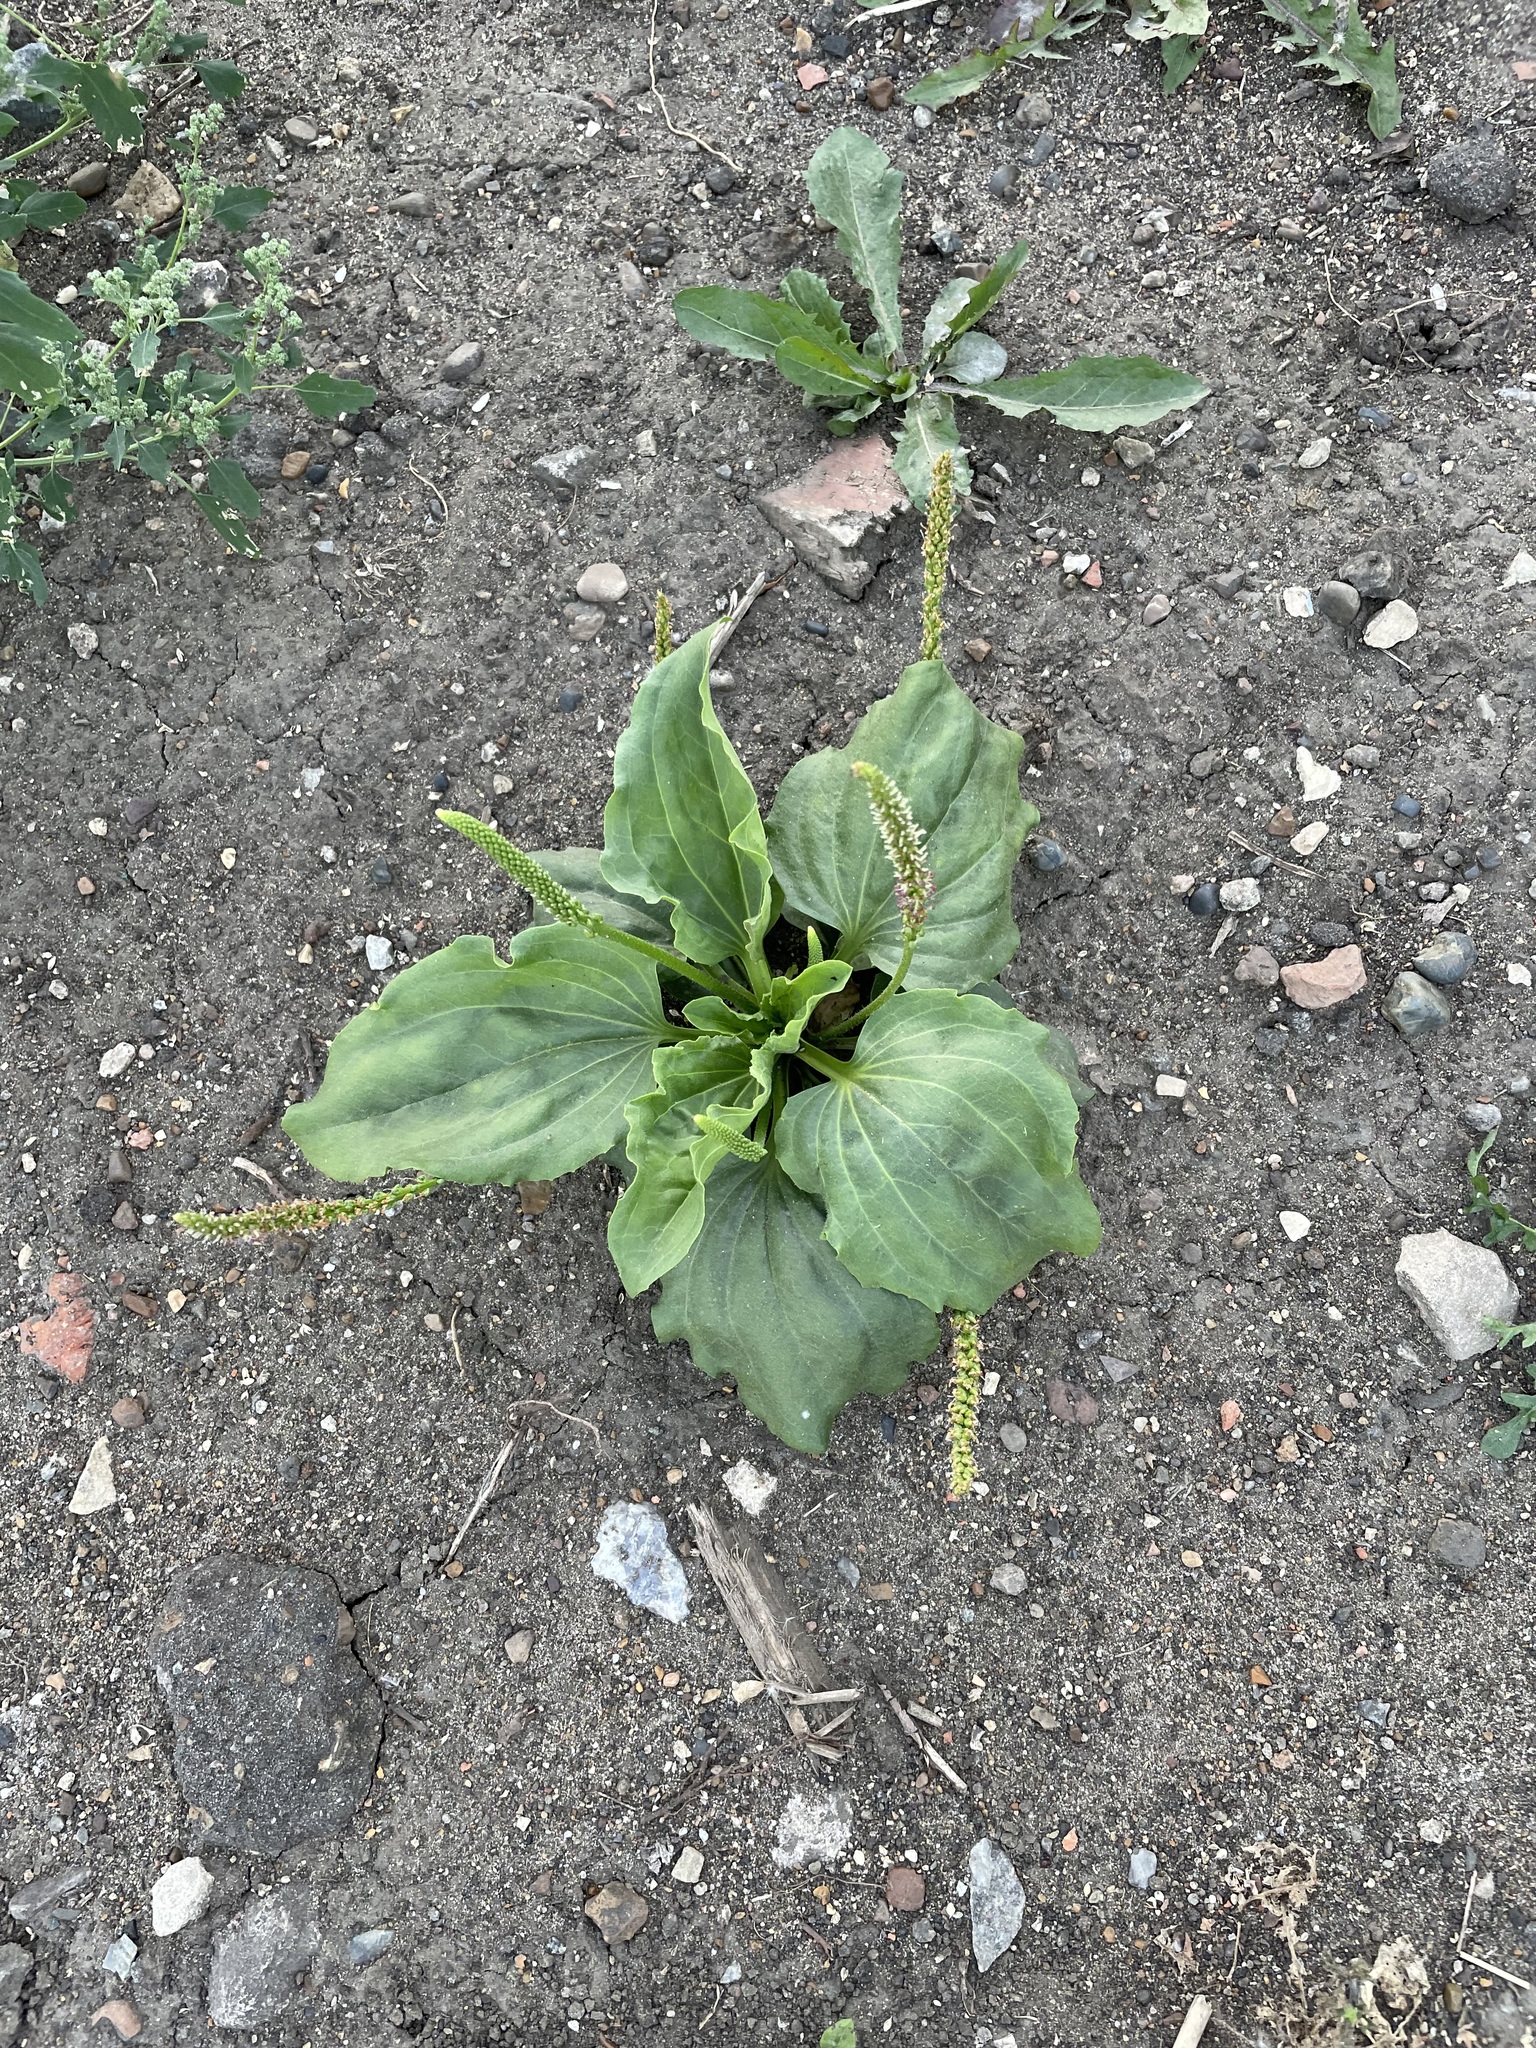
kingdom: Plantae
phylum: Tracheophyta
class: Magnoliopsida
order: Lamiales
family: Plantaginaceae
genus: Plantago
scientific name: Plantago major
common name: Common plantain
